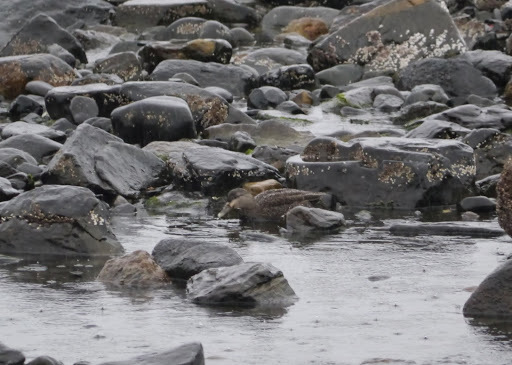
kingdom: Animalia
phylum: Chordata
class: Aves
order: Anseriformes
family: Anatidae
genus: Anas
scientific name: Anas rubripes
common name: American black duck
